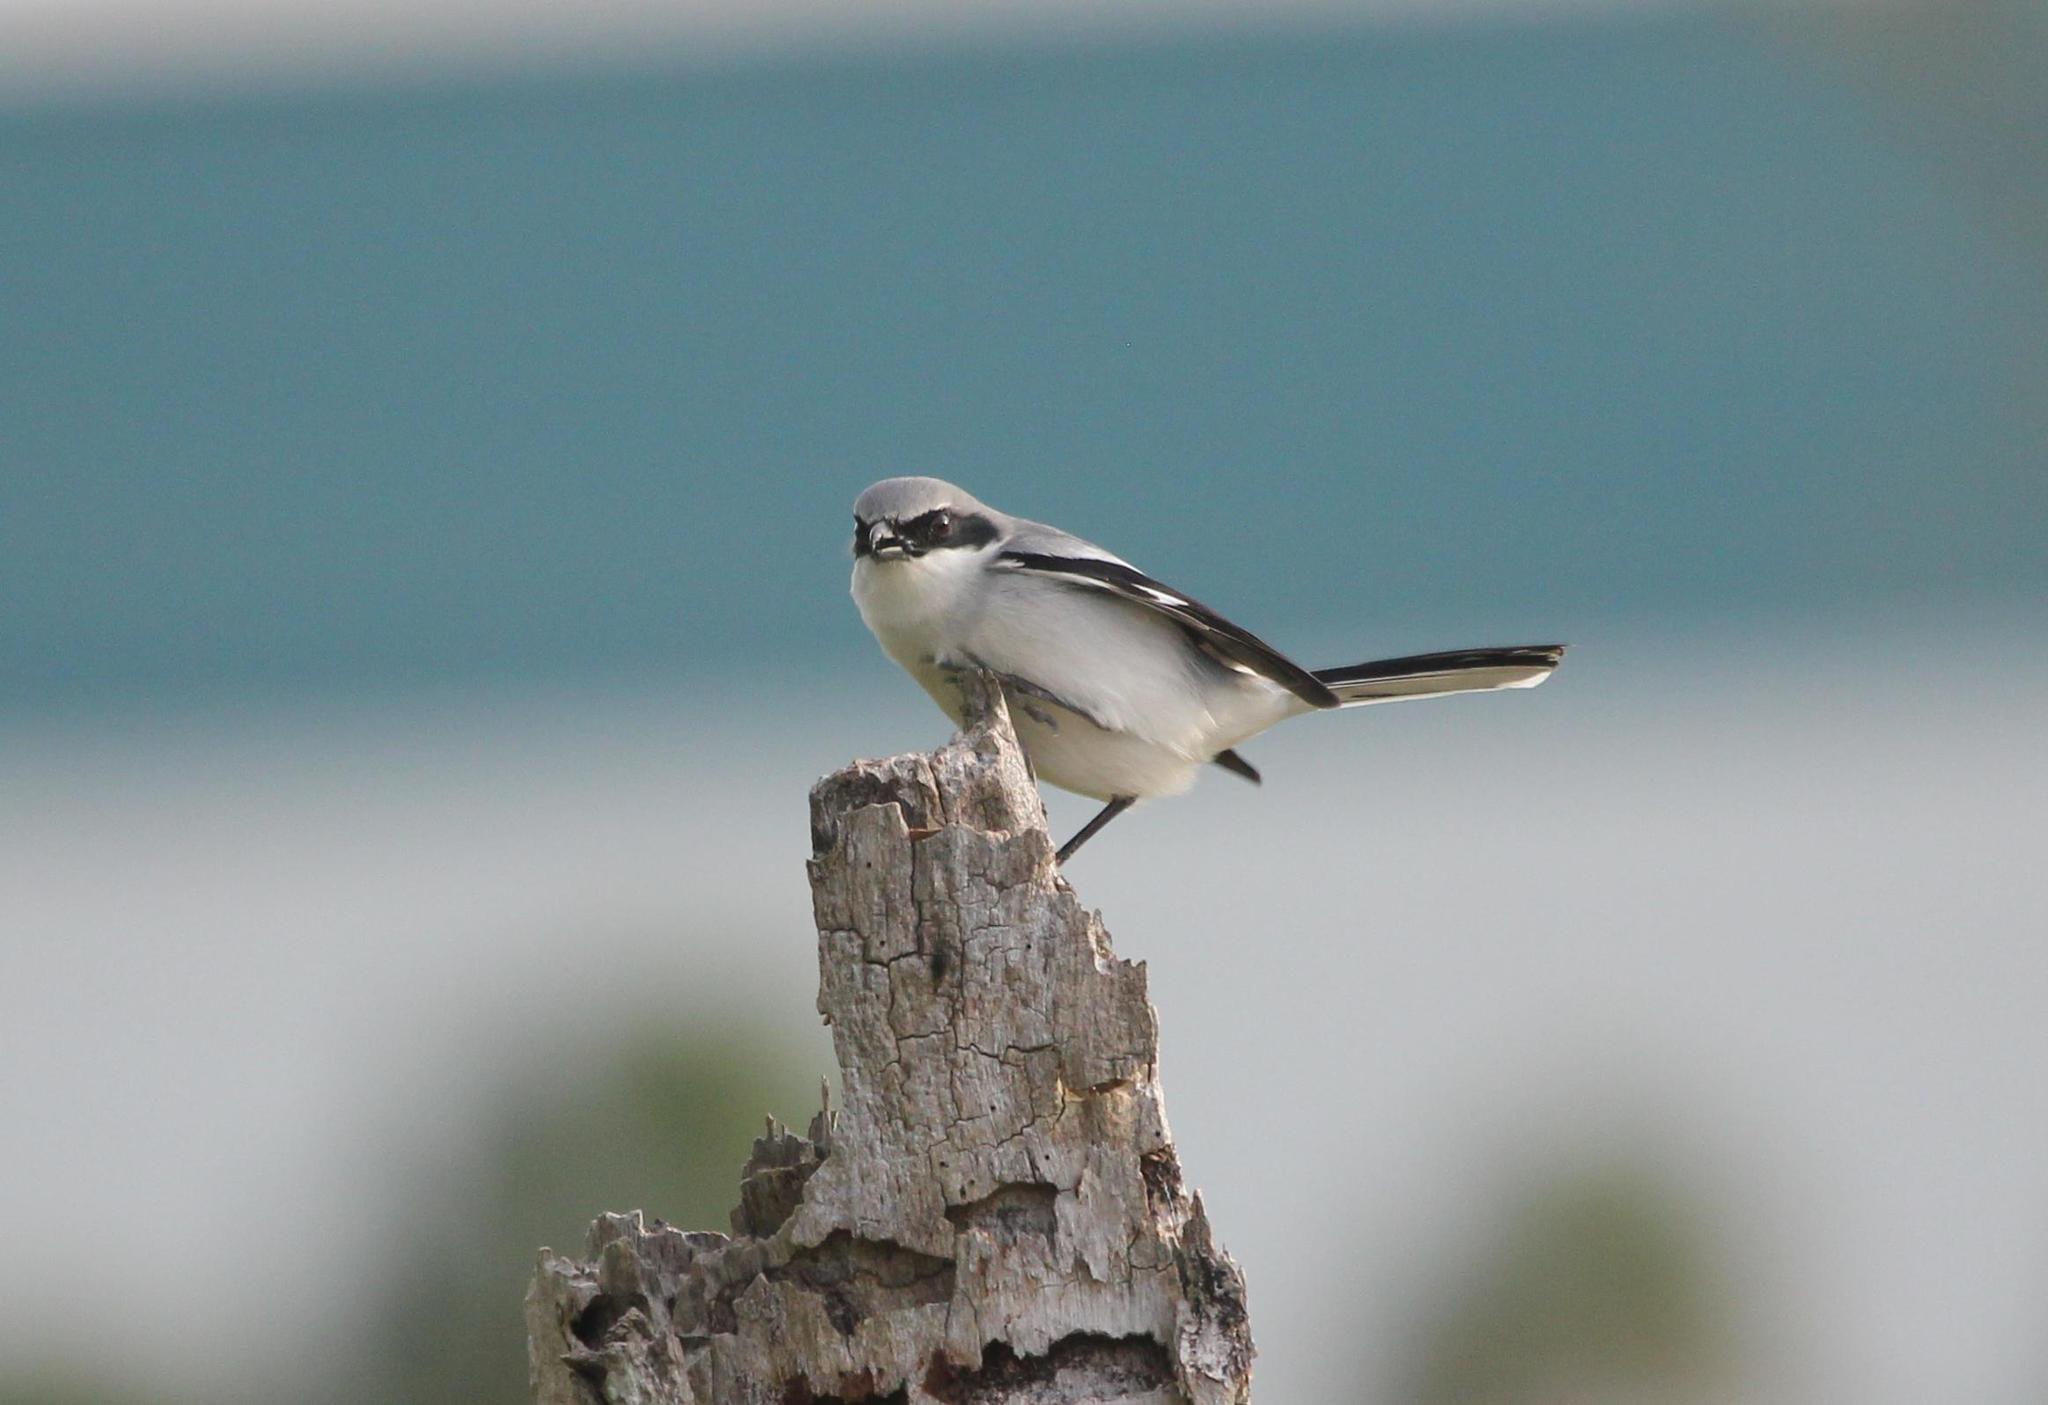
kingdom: Animalia
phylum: Chordata
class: Aves
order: Passeriformes
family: Laniidae
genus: Lanius
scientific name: Lanius ludovicianus
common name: Loggerhead shrike
